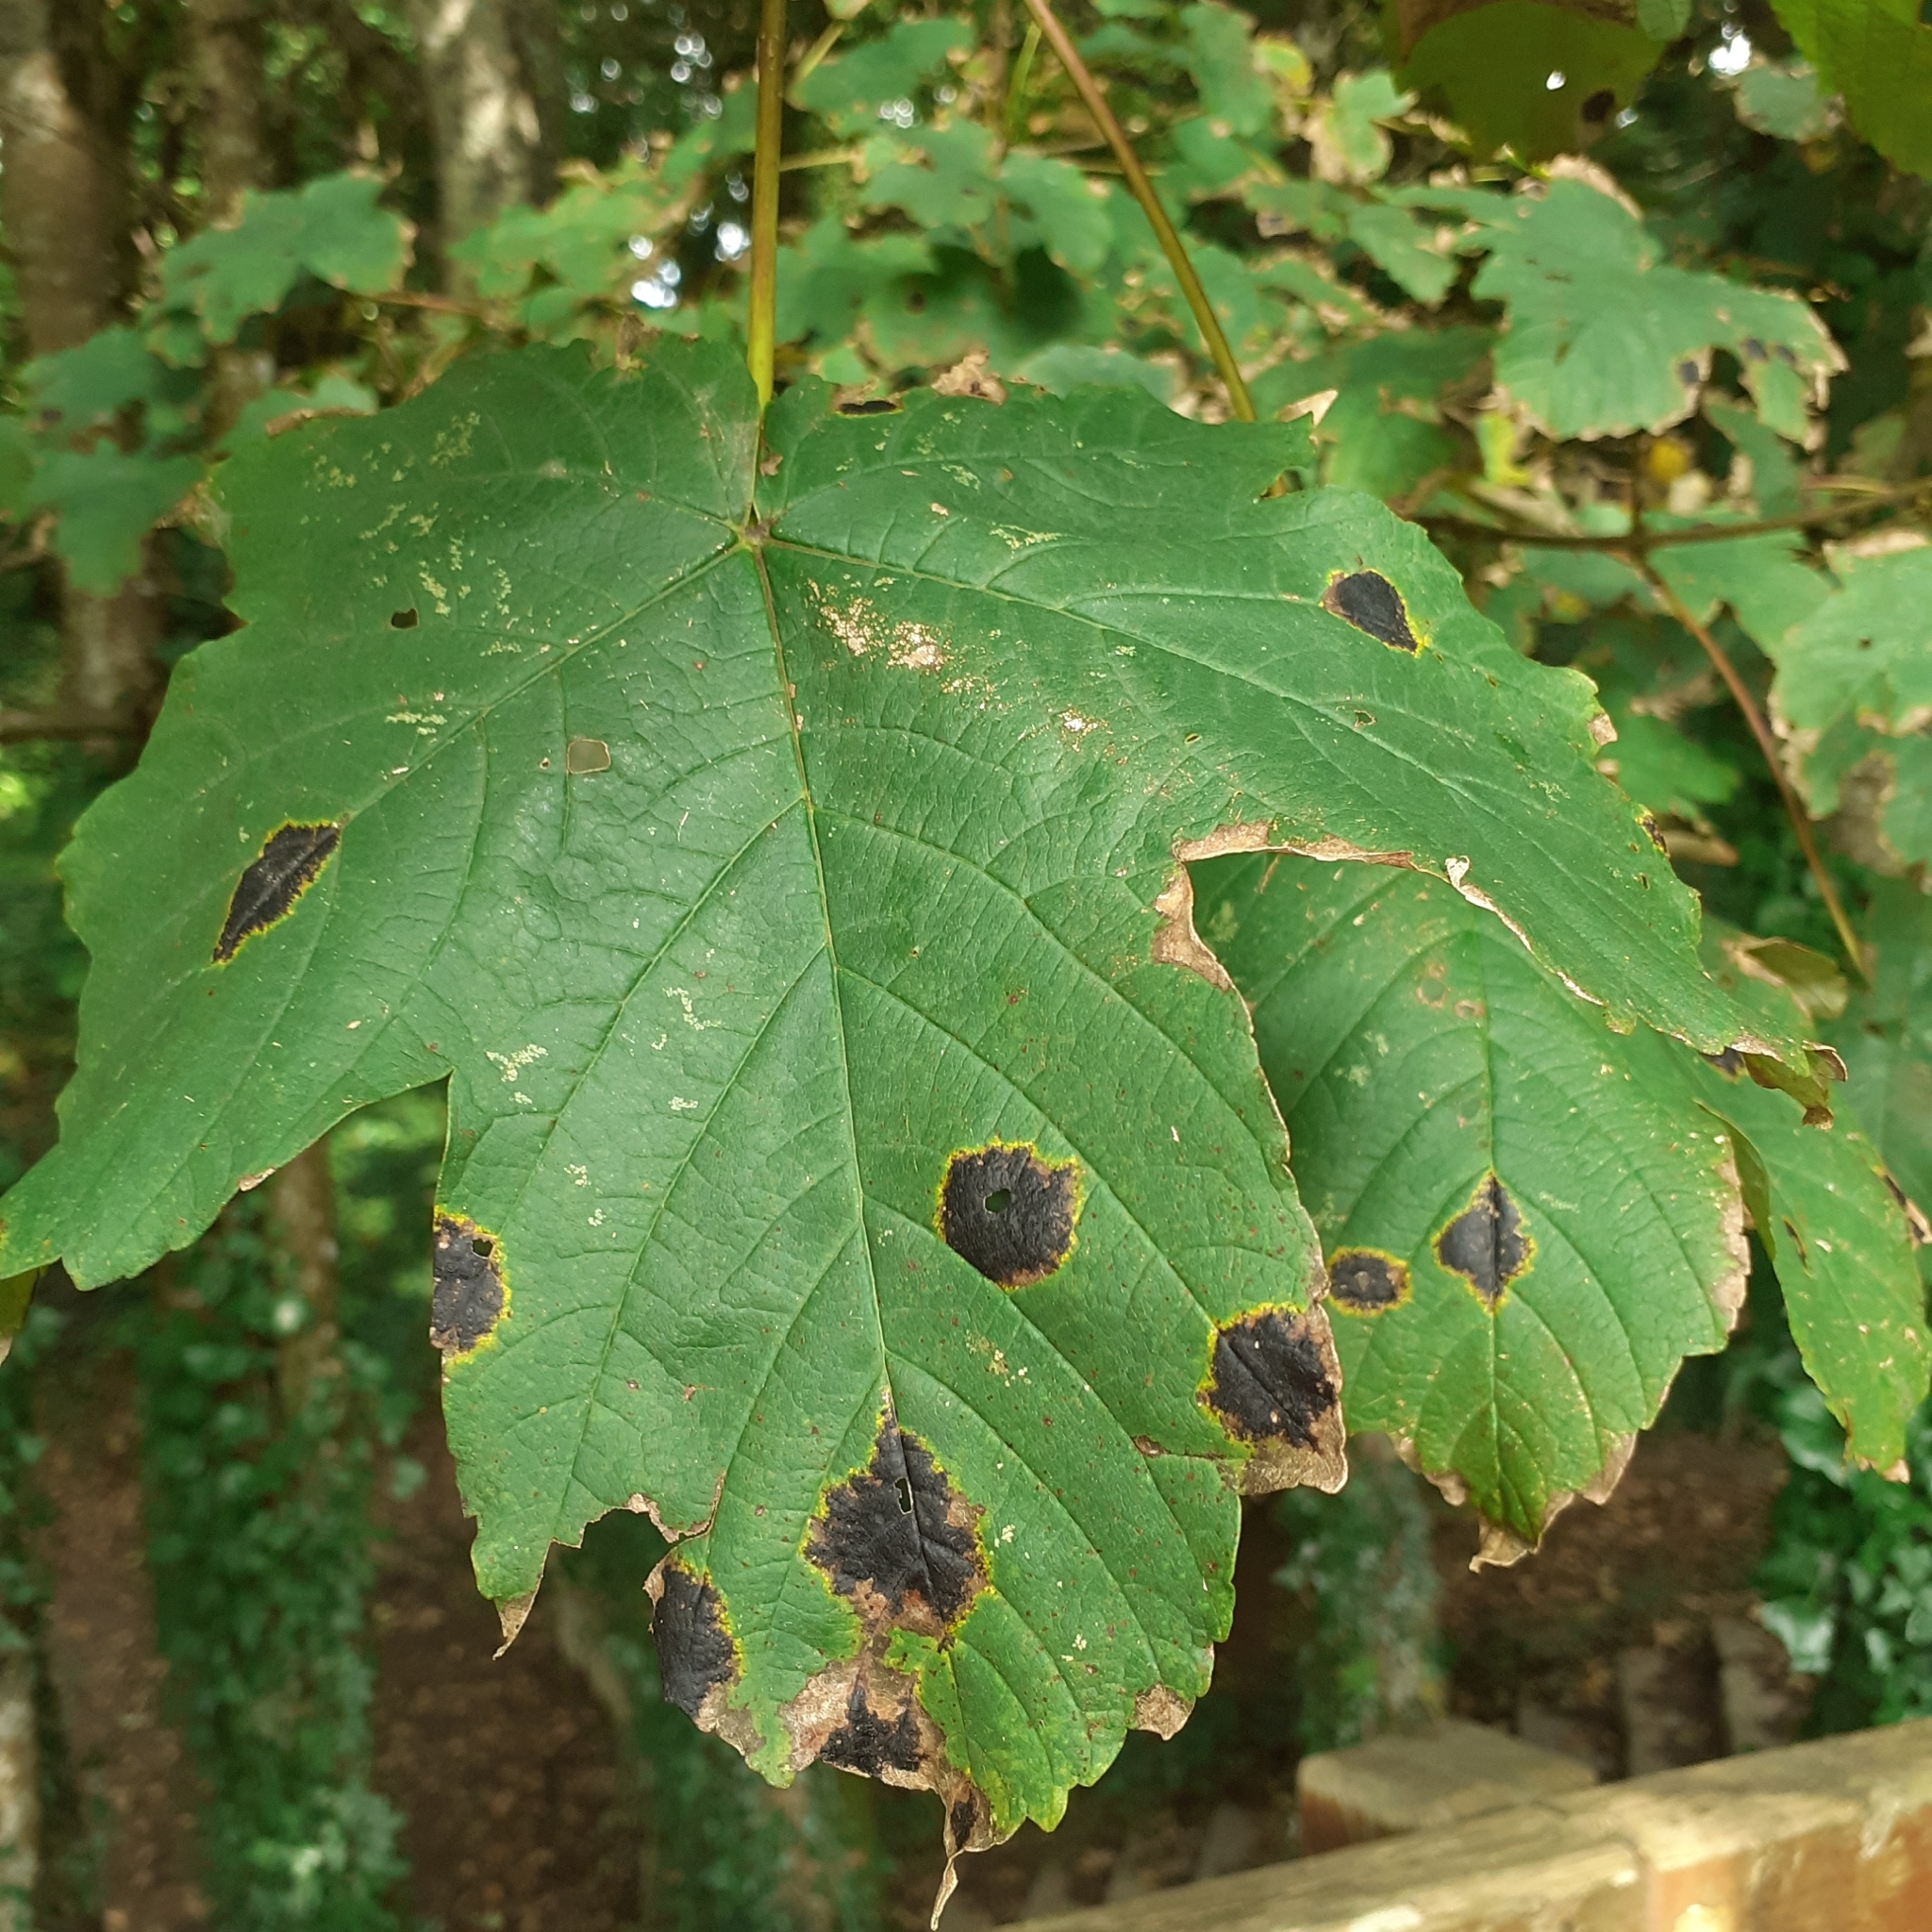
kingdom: Fungi
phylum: Ascomycota
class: Leotiomycetes
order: Rhytismatales
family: Rhytismataceae
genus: Rhytisma
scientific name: Rhytisma acerinum
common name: European tar spot
